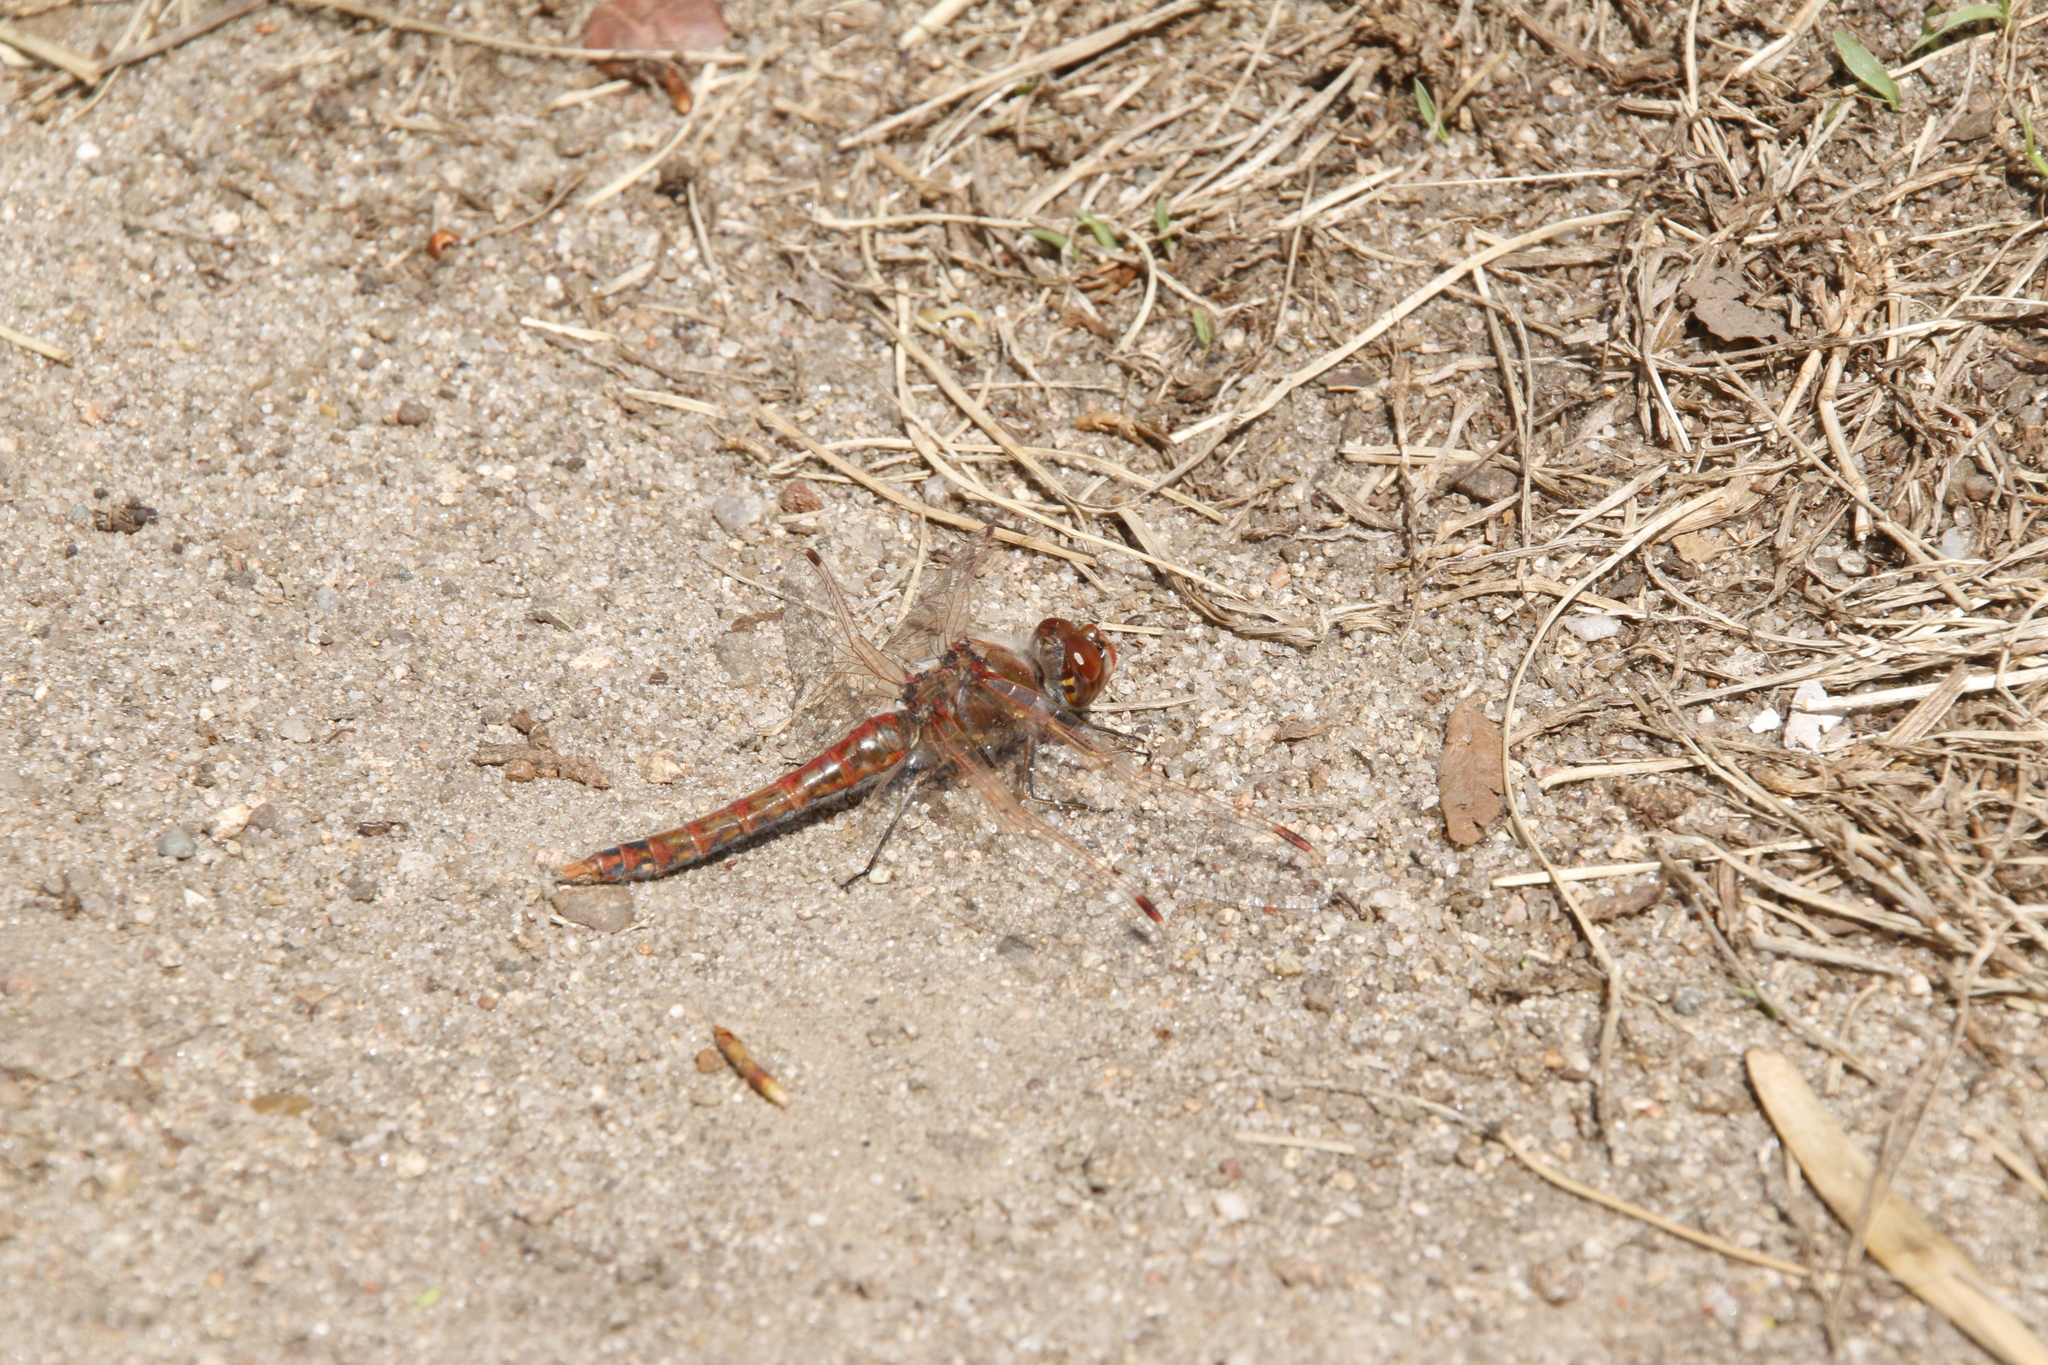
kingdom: Animalia
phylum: Arthropoda
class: Insecta
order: Odonata
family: Libellulidae
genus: Sympetrum
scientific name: Sympetrum corruptum
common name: Variegated meadowhawk
